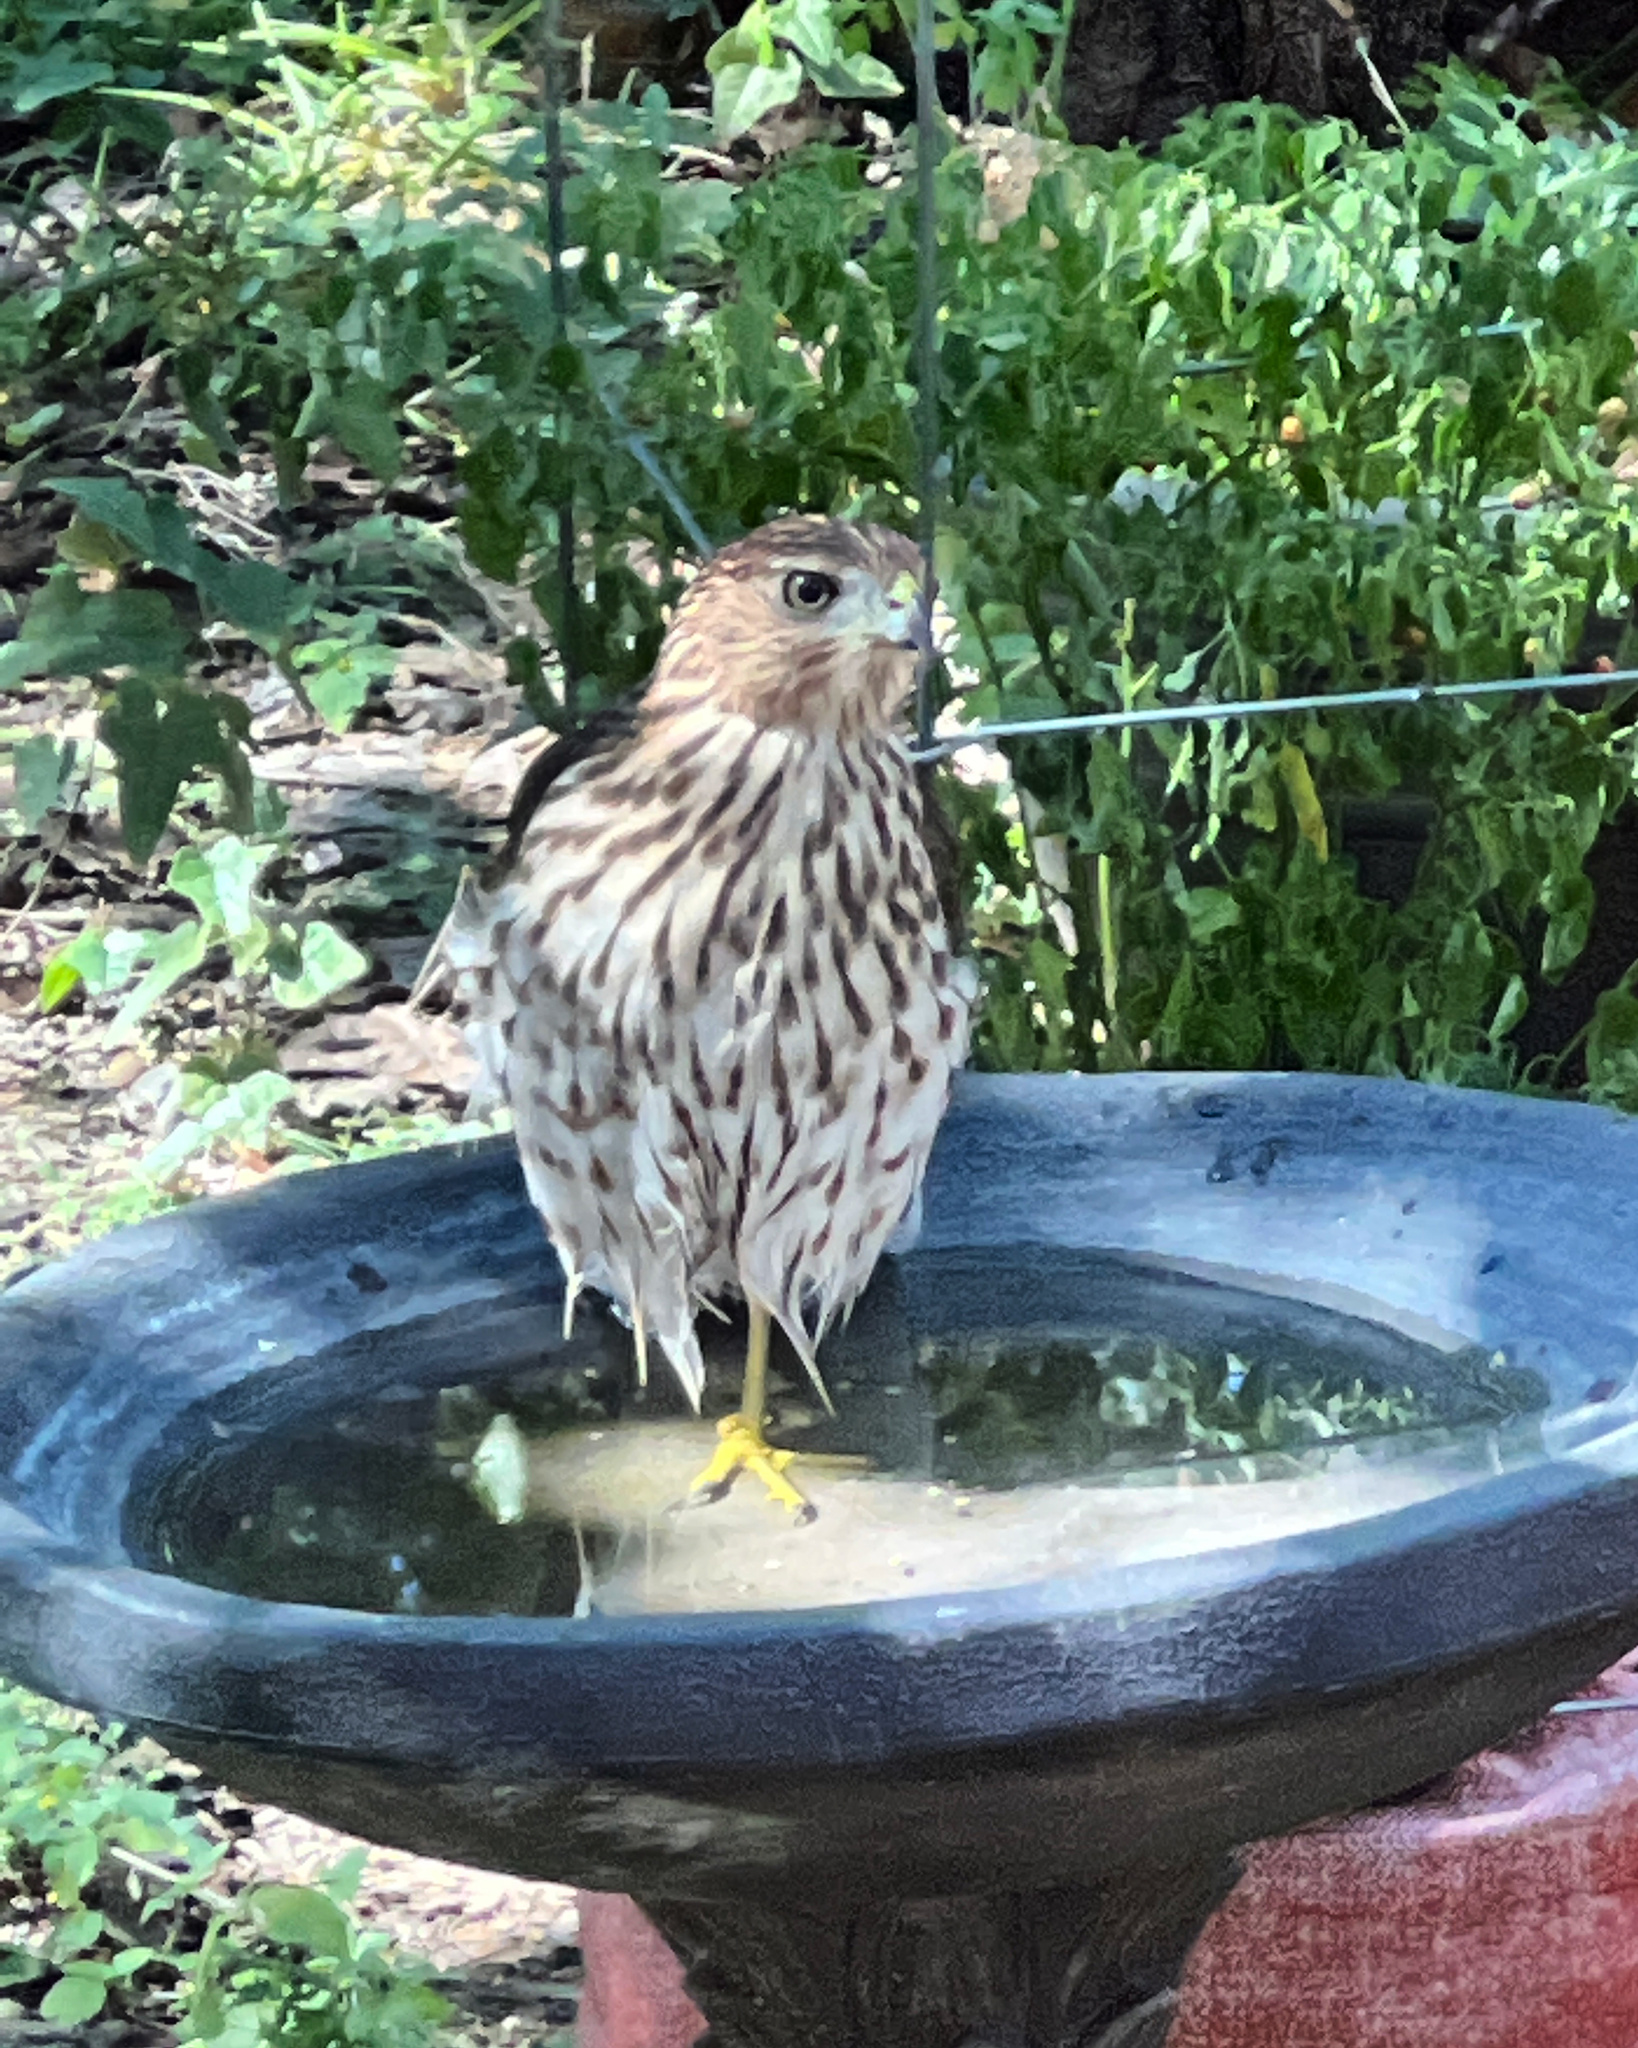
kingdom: Animalia
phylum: Chordata
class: Aves
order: Accipitriformes
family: Accipitridae
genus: Accipiter
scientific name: Accipiter cooperii
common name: Cooper's hawk
